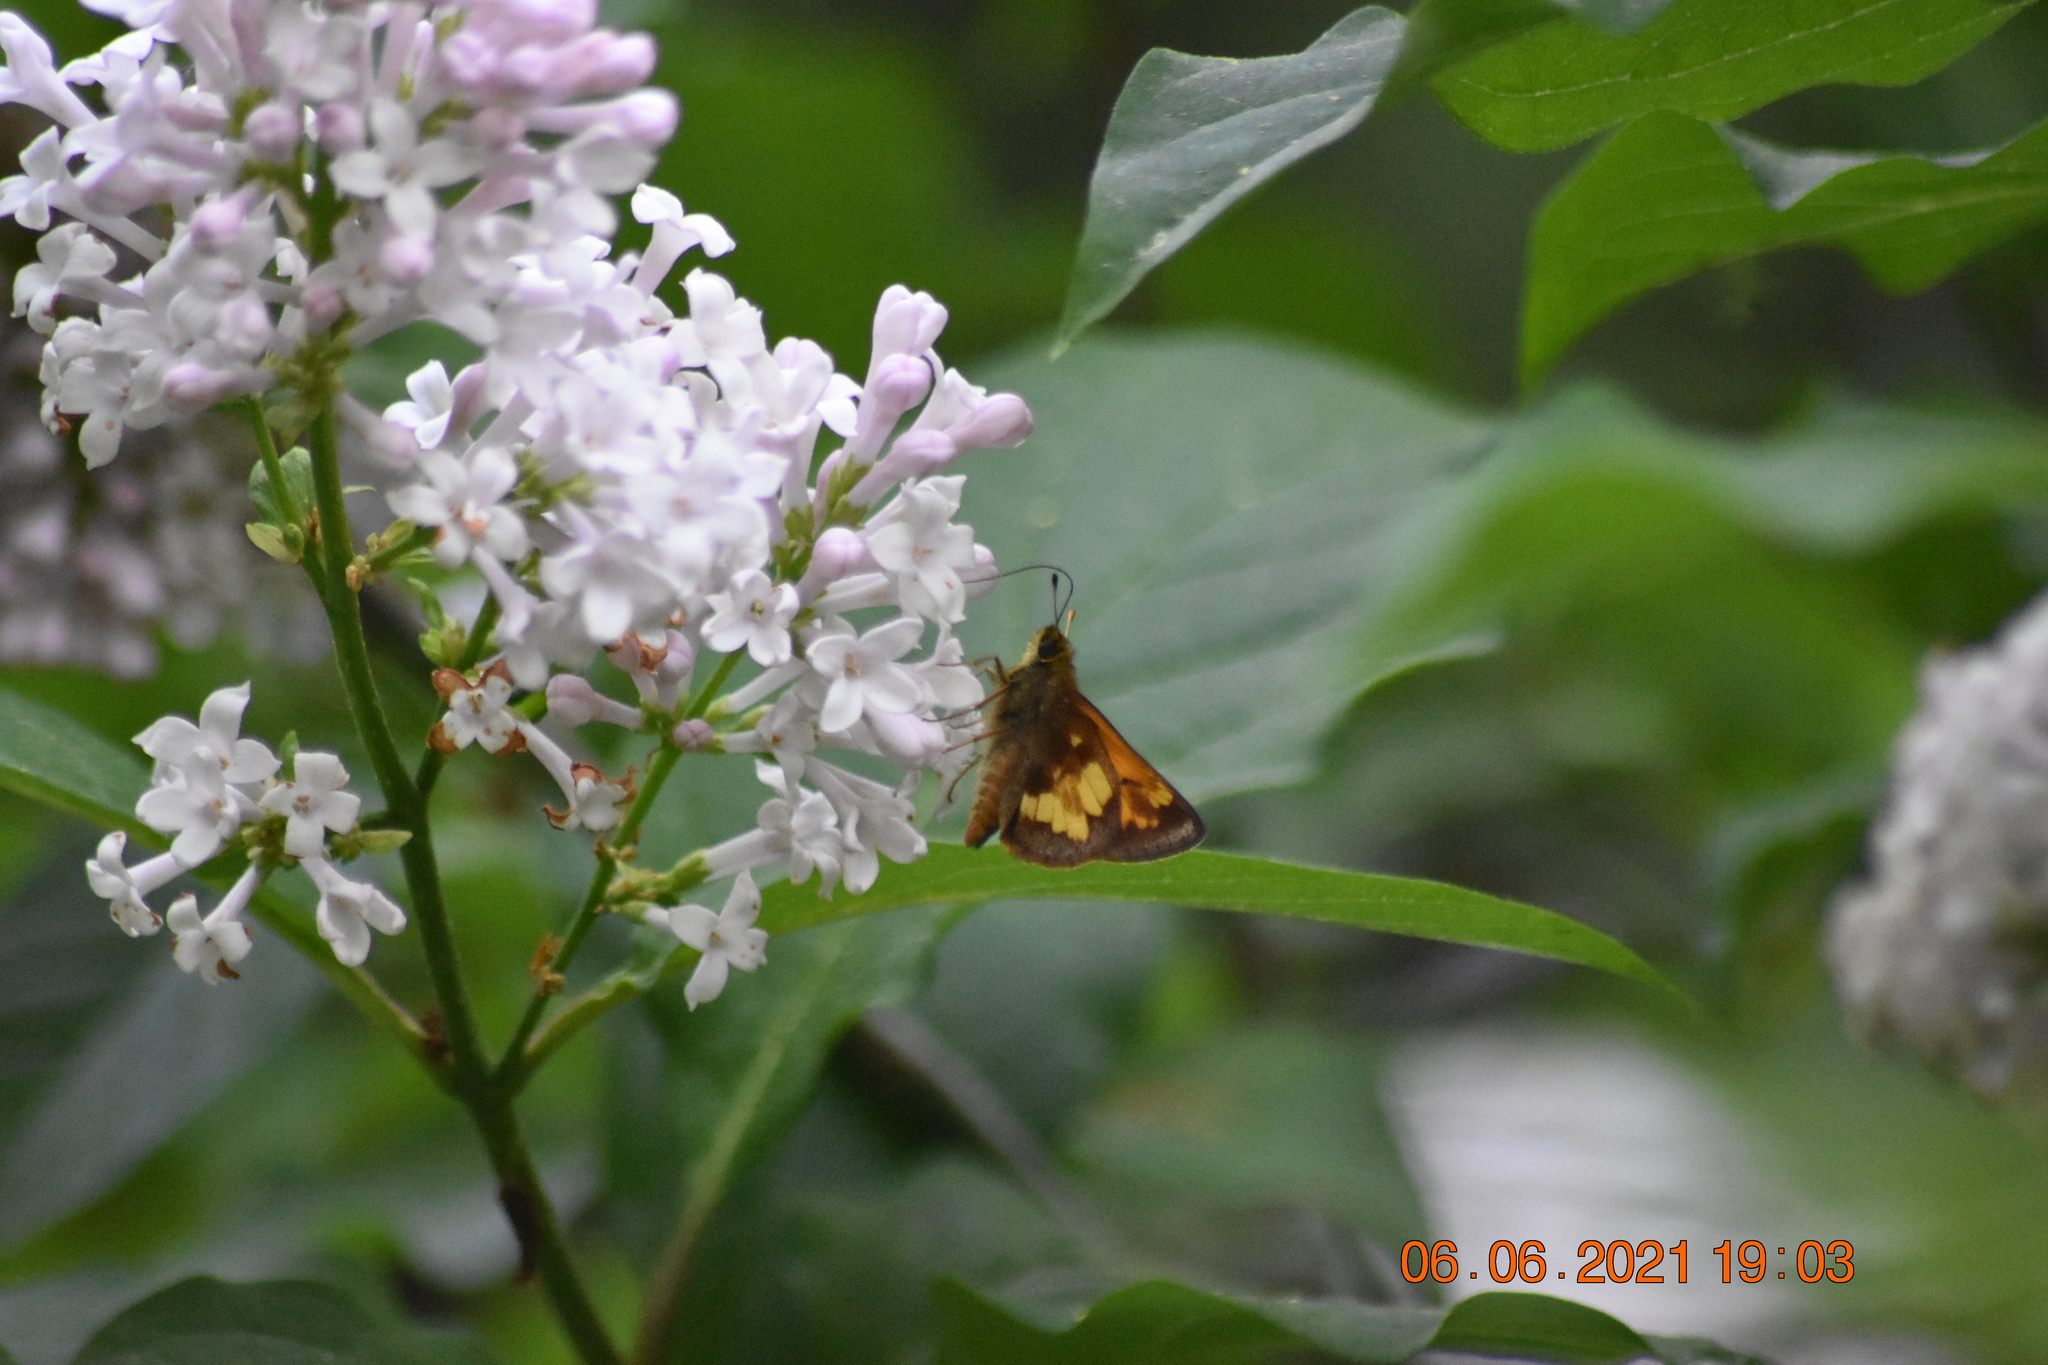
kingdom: Animalia
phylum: Arthropoda
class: Insecta
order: Lepidoptera
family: Hesperiidae
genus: Lon
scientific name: Lon hobomok
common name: Hobomok skipper
